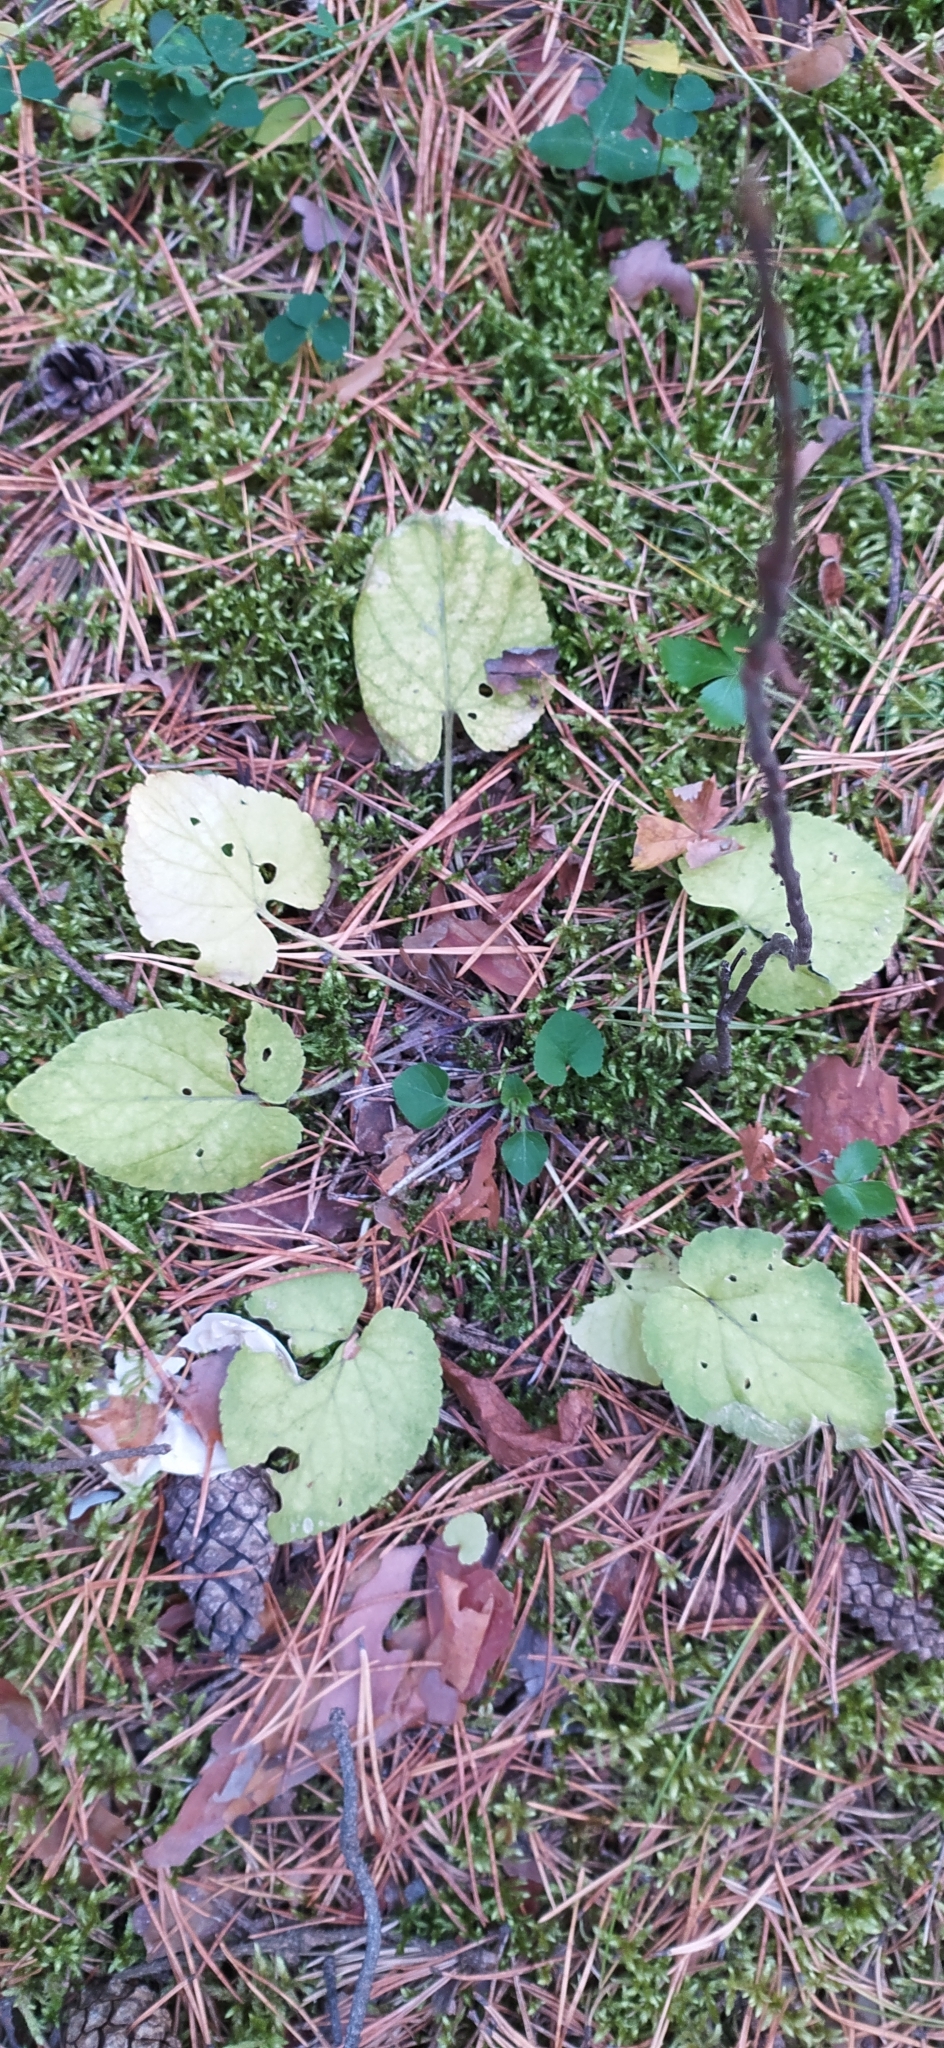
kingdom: Plantae
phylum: Tracheophyta
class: Magnoliopsida
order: Malpighiales
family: Violaceae
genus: Viola
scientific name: Viola collina
